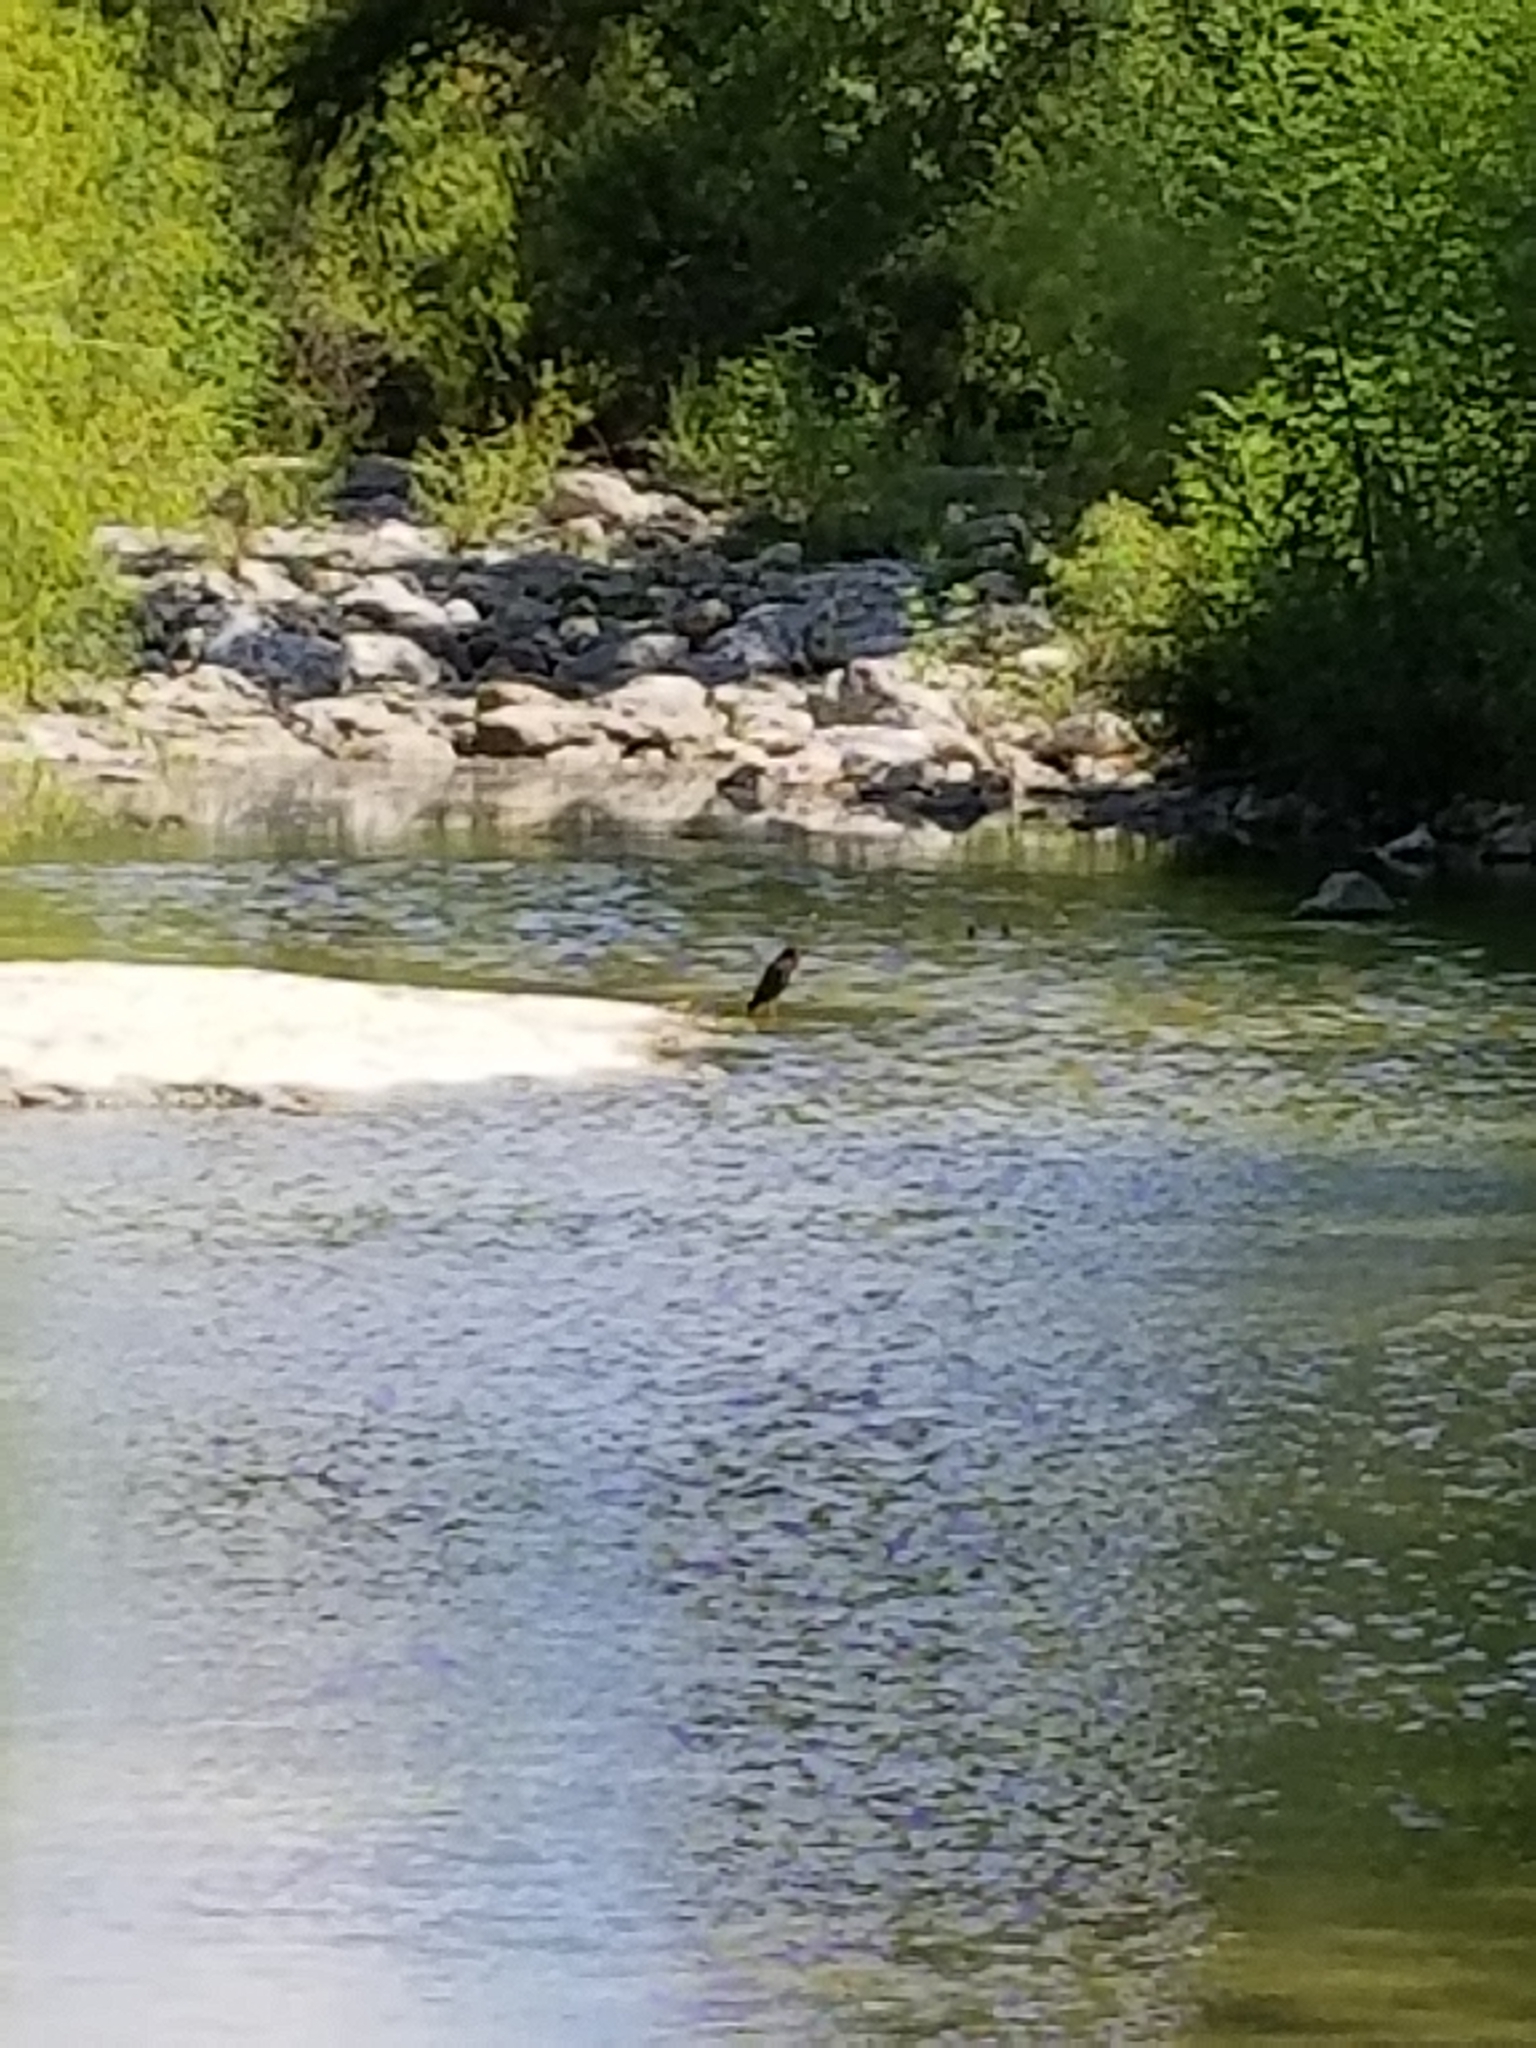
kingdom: Animalia
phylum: Chordata
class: Aves
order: Pelecaniformes
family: Ardeidae
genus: Butorides
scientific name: Butorides virescens
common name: Green heron
